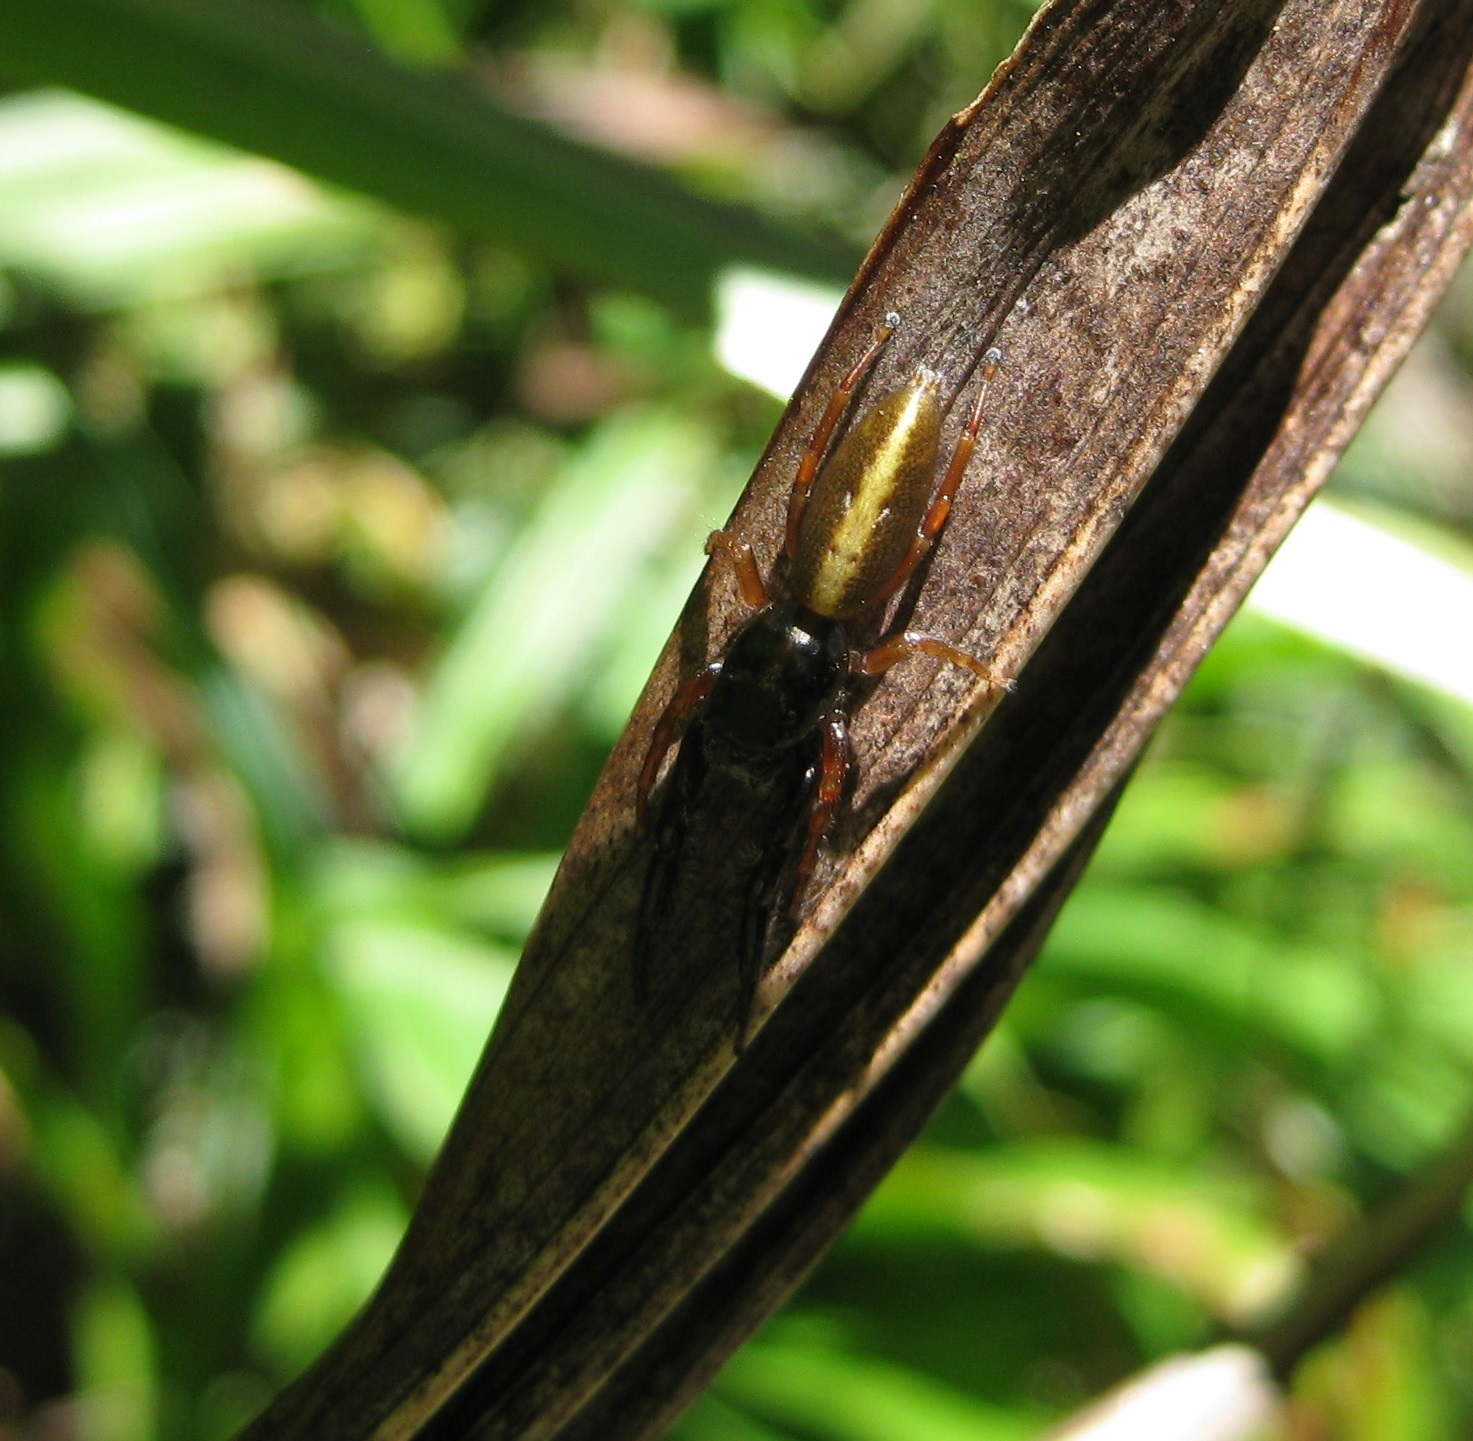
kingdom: Animalia
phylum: Arthropoda
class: Arachnida
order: Araneae
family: Salticidae
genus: Trite
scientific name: Trite planiceps
